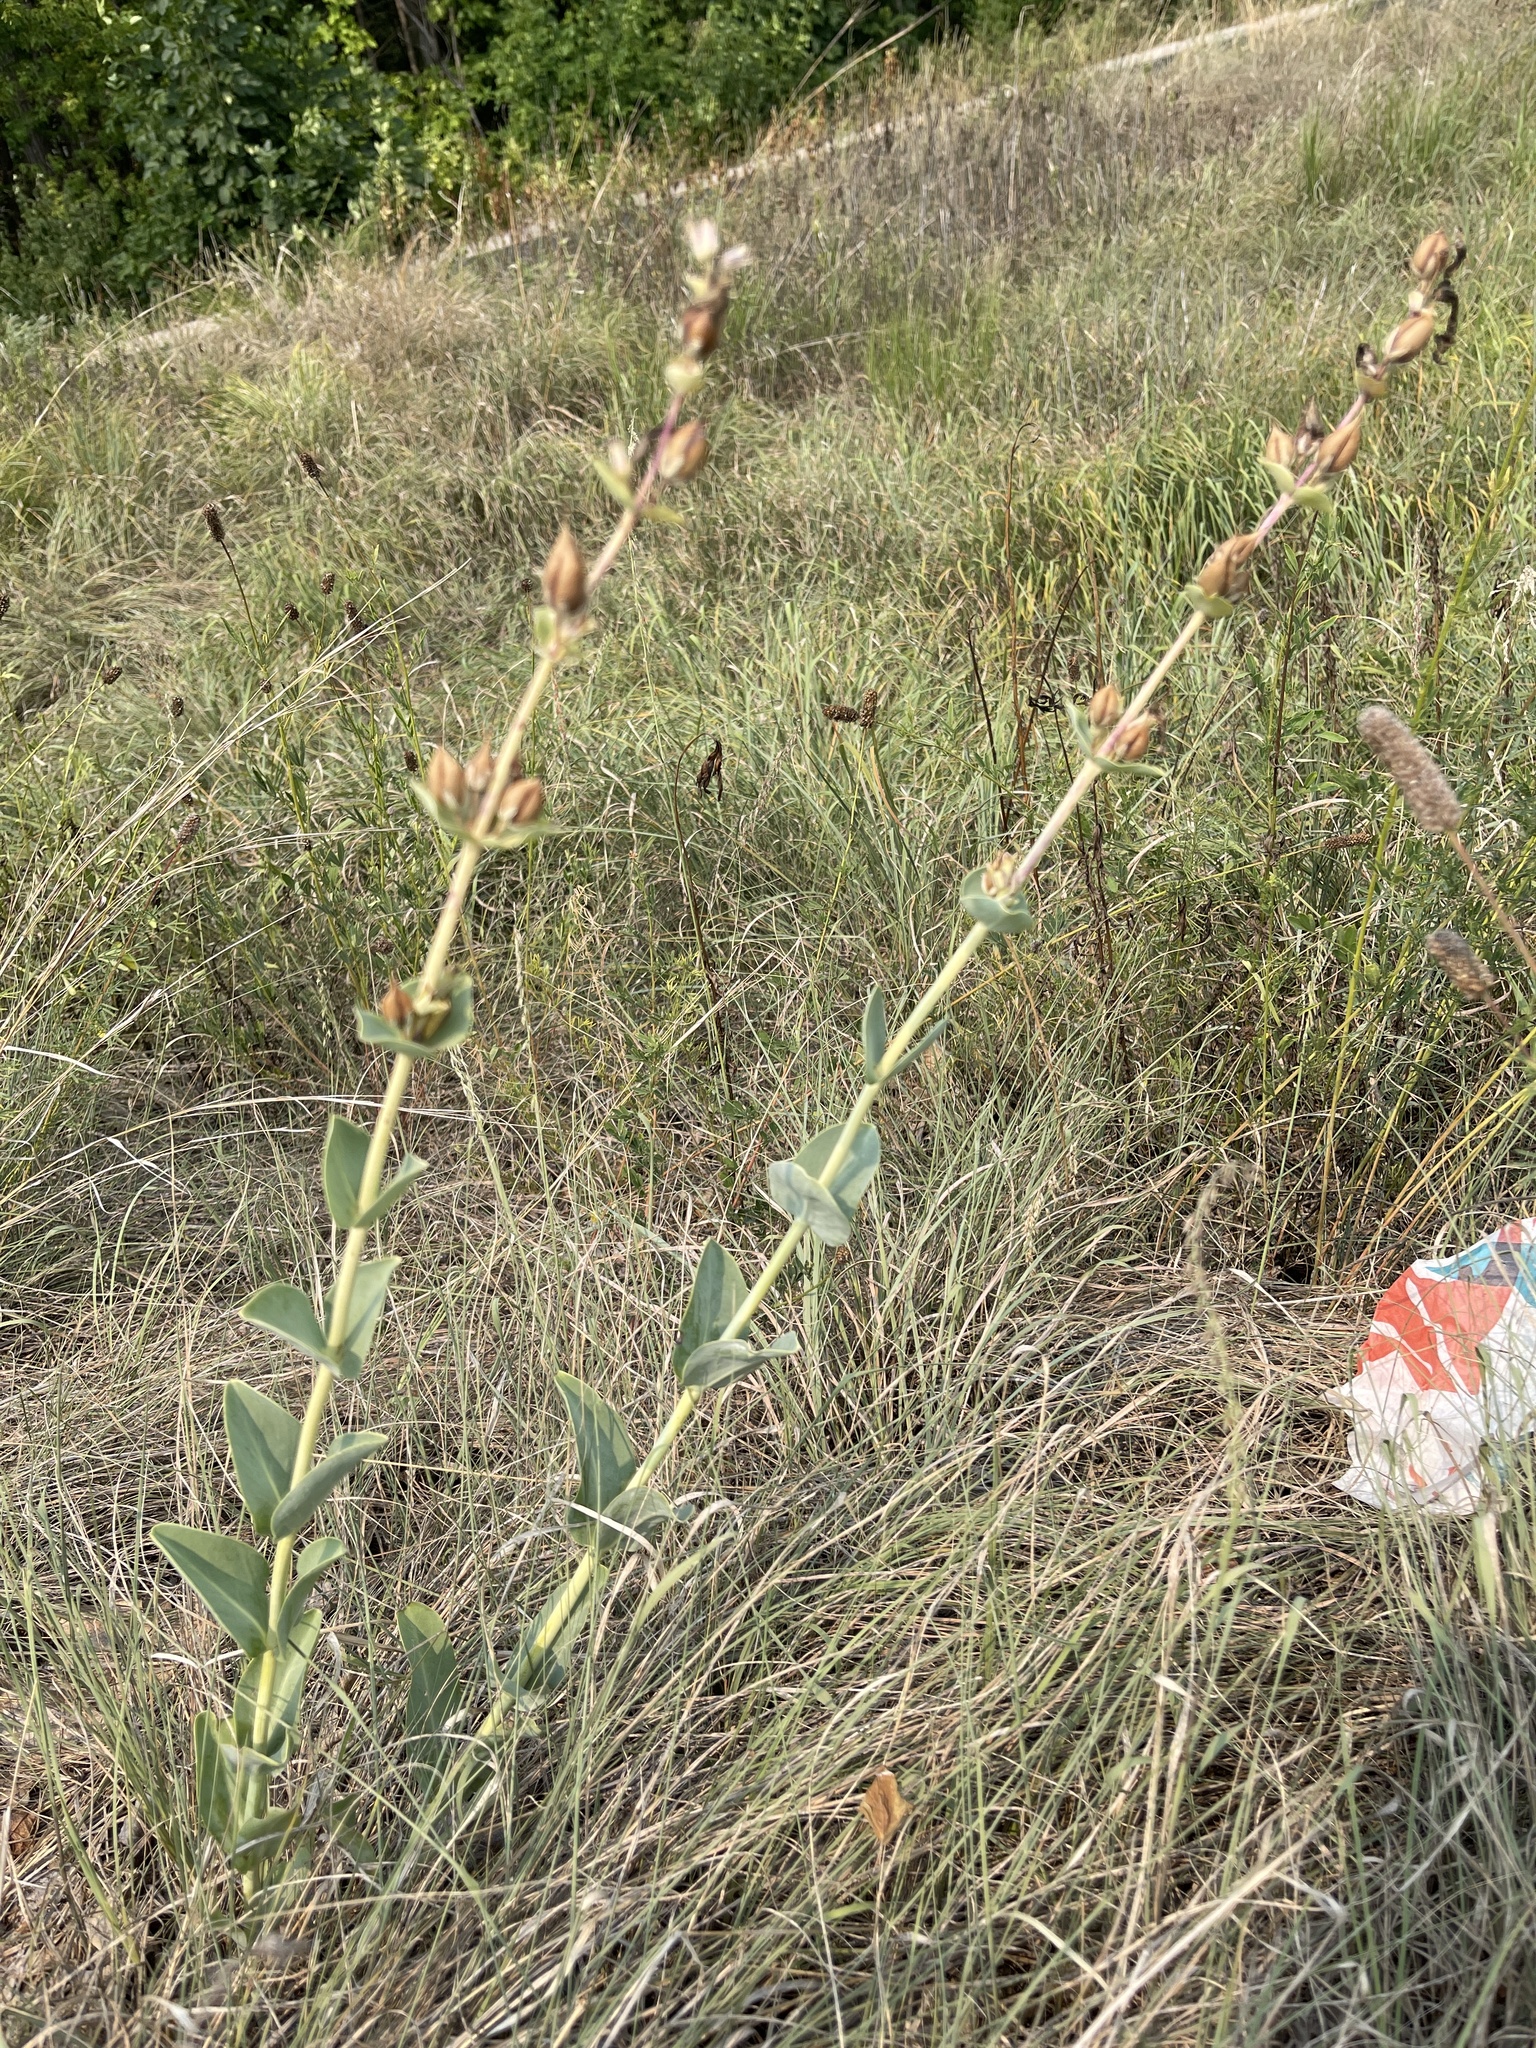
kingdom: Plantae
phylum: Tracheophyta
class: Magnoliopsida
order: Lamiales
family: Plantaginaceae
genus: Penstemon
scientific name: Penstemon
